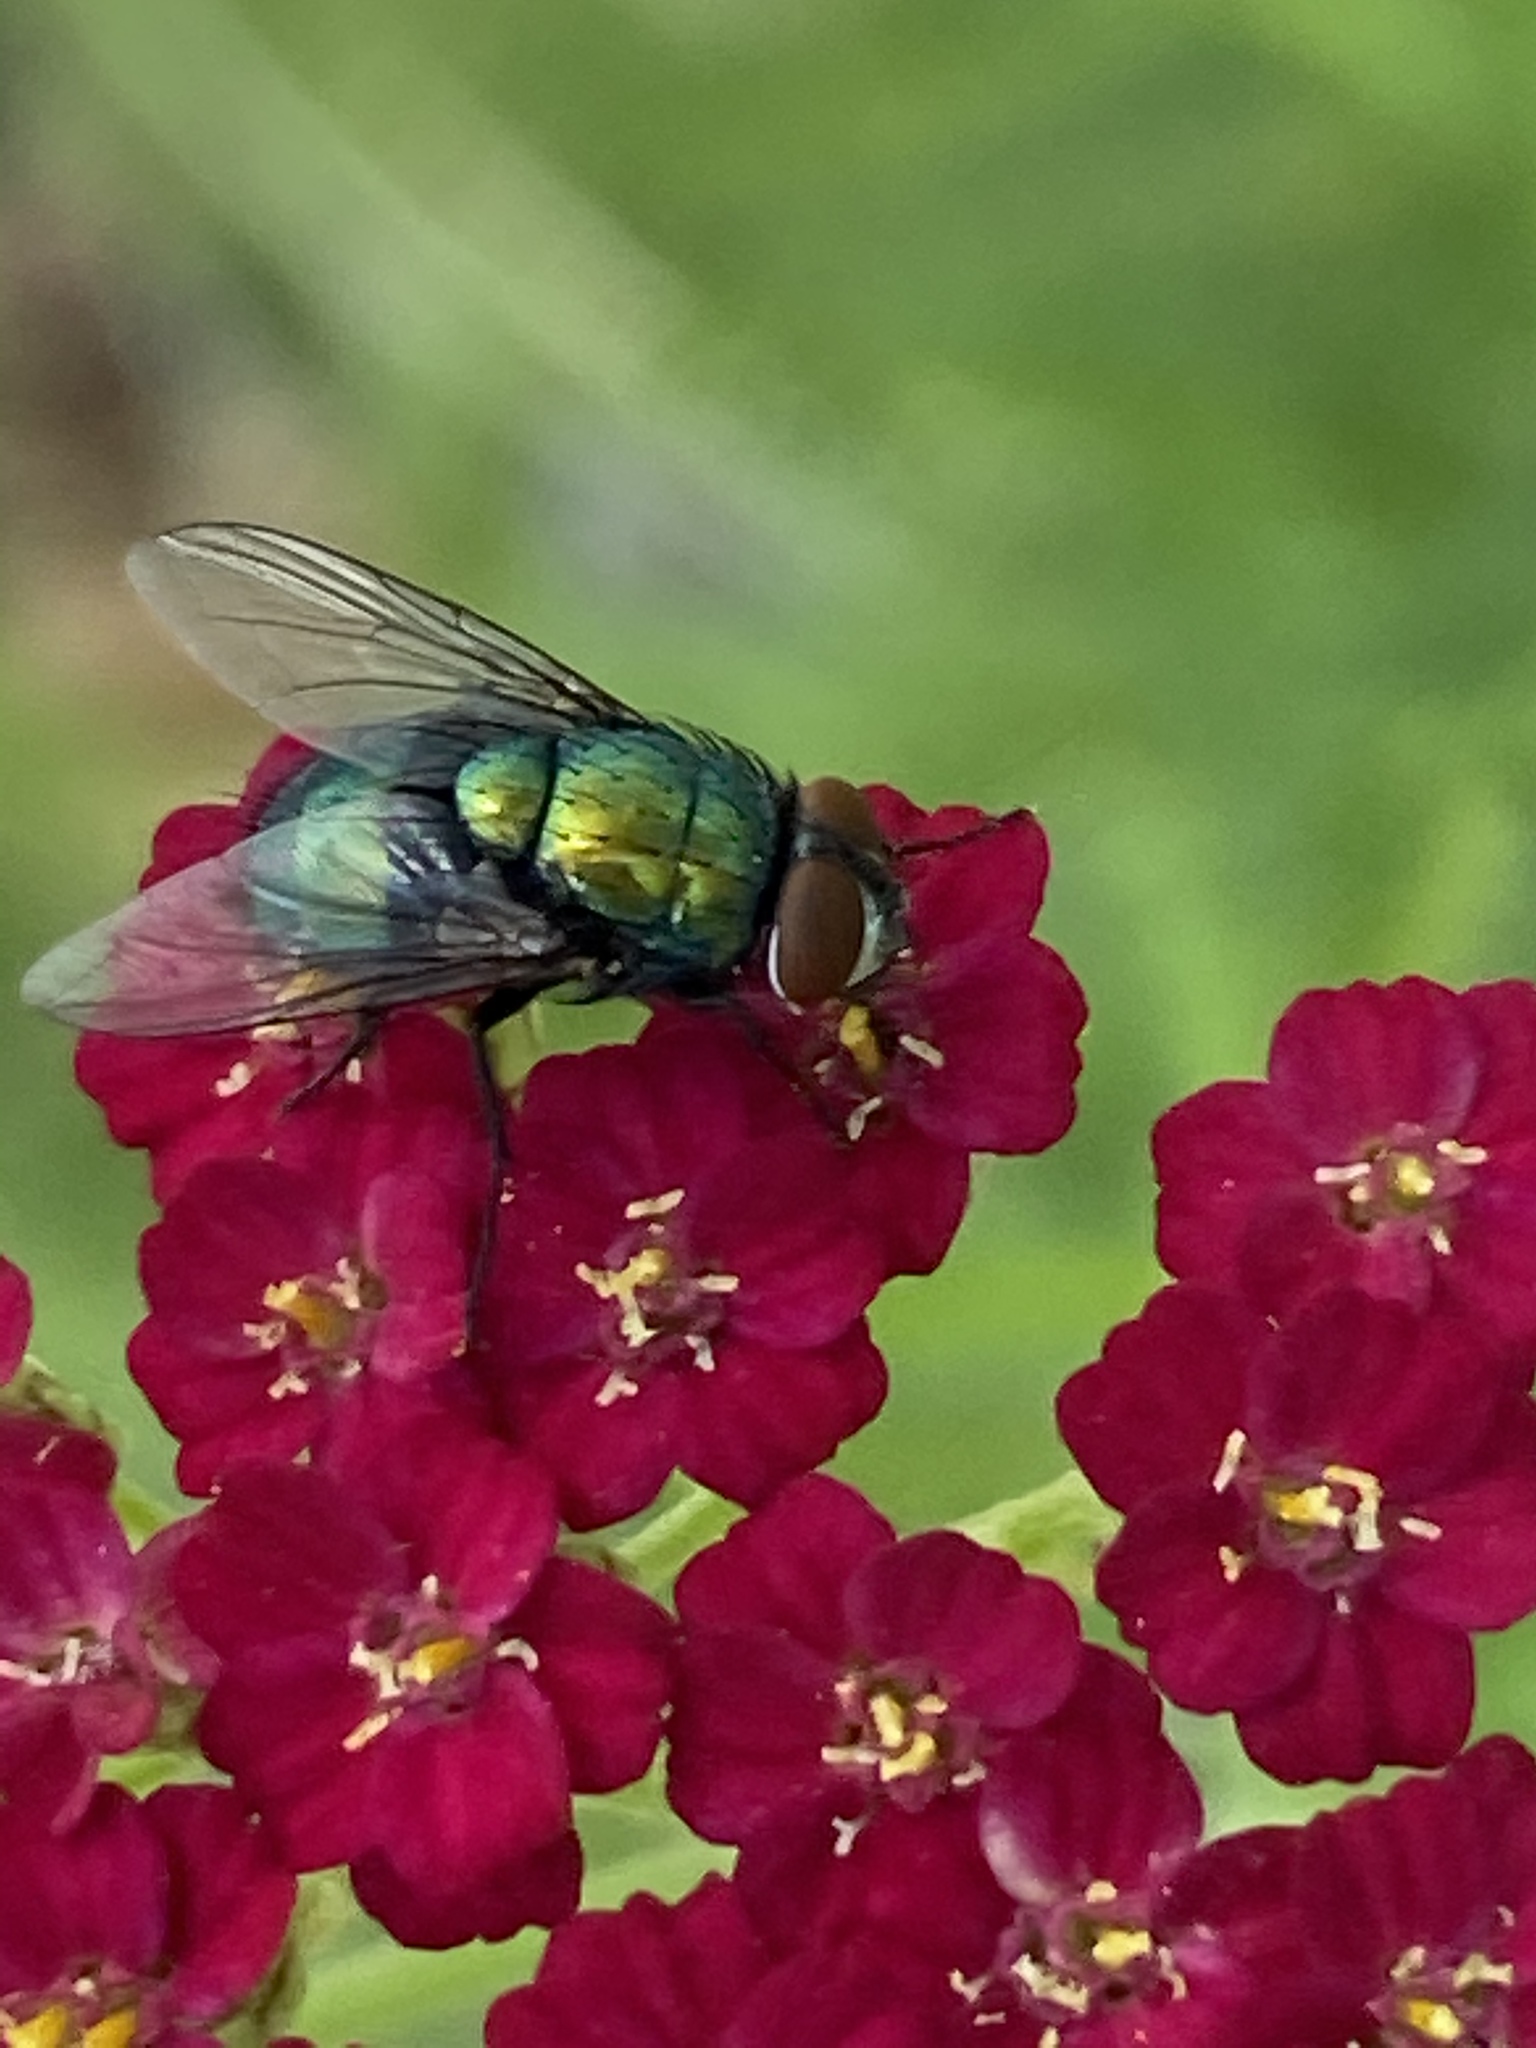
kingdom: Animalia
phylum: Arthropoda
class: Insecta
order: Diptera
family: Calliphoridae
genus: Lucilia
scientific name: Lucilia sericata
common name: Blow fly
